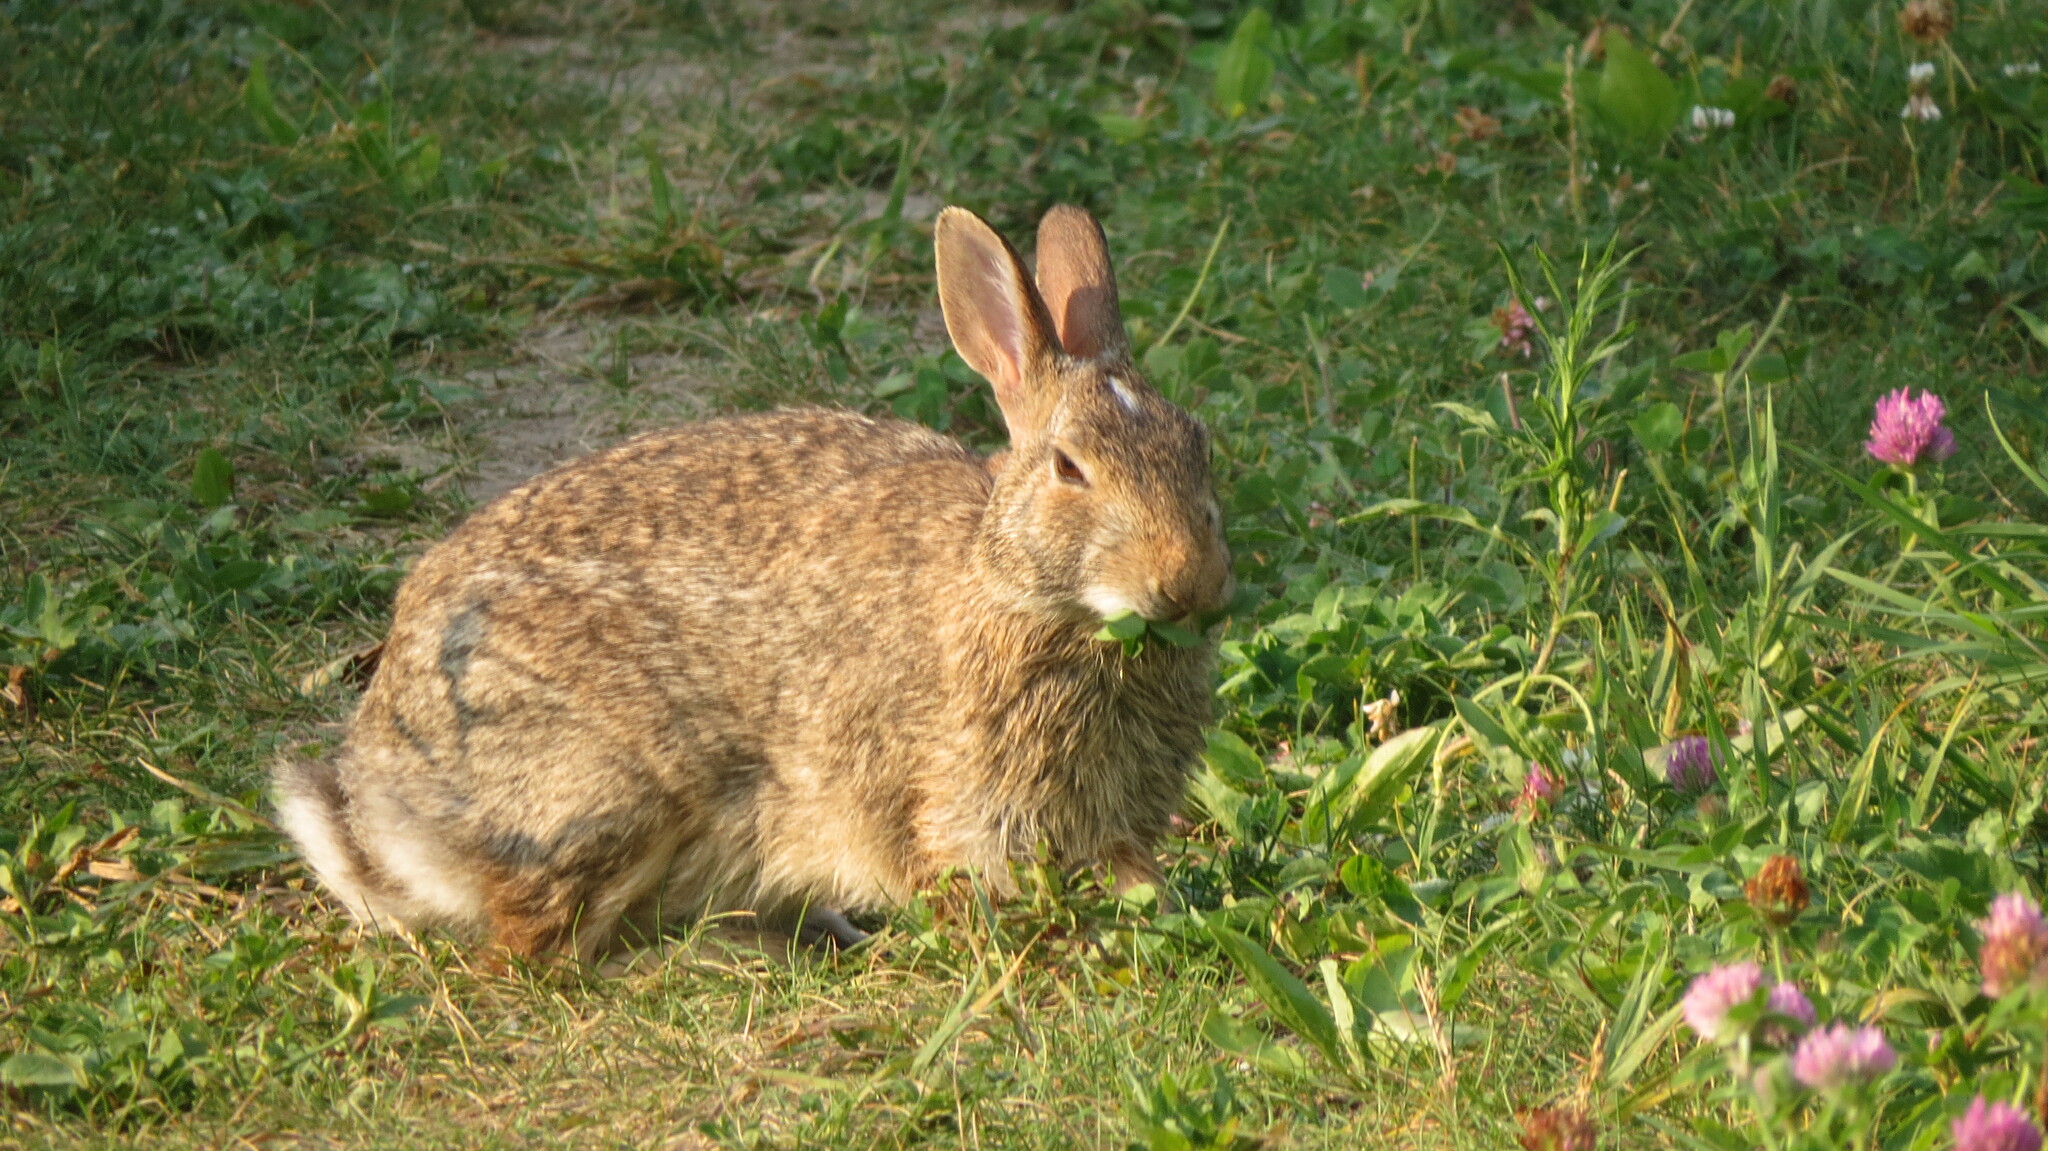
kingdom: Animalia
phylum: Chordata
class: Mammalia
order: Lagomorpha
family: Leporidae
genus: Sylvilagus
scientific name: Sylvilagus floridanus
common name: Eastern cottontail
